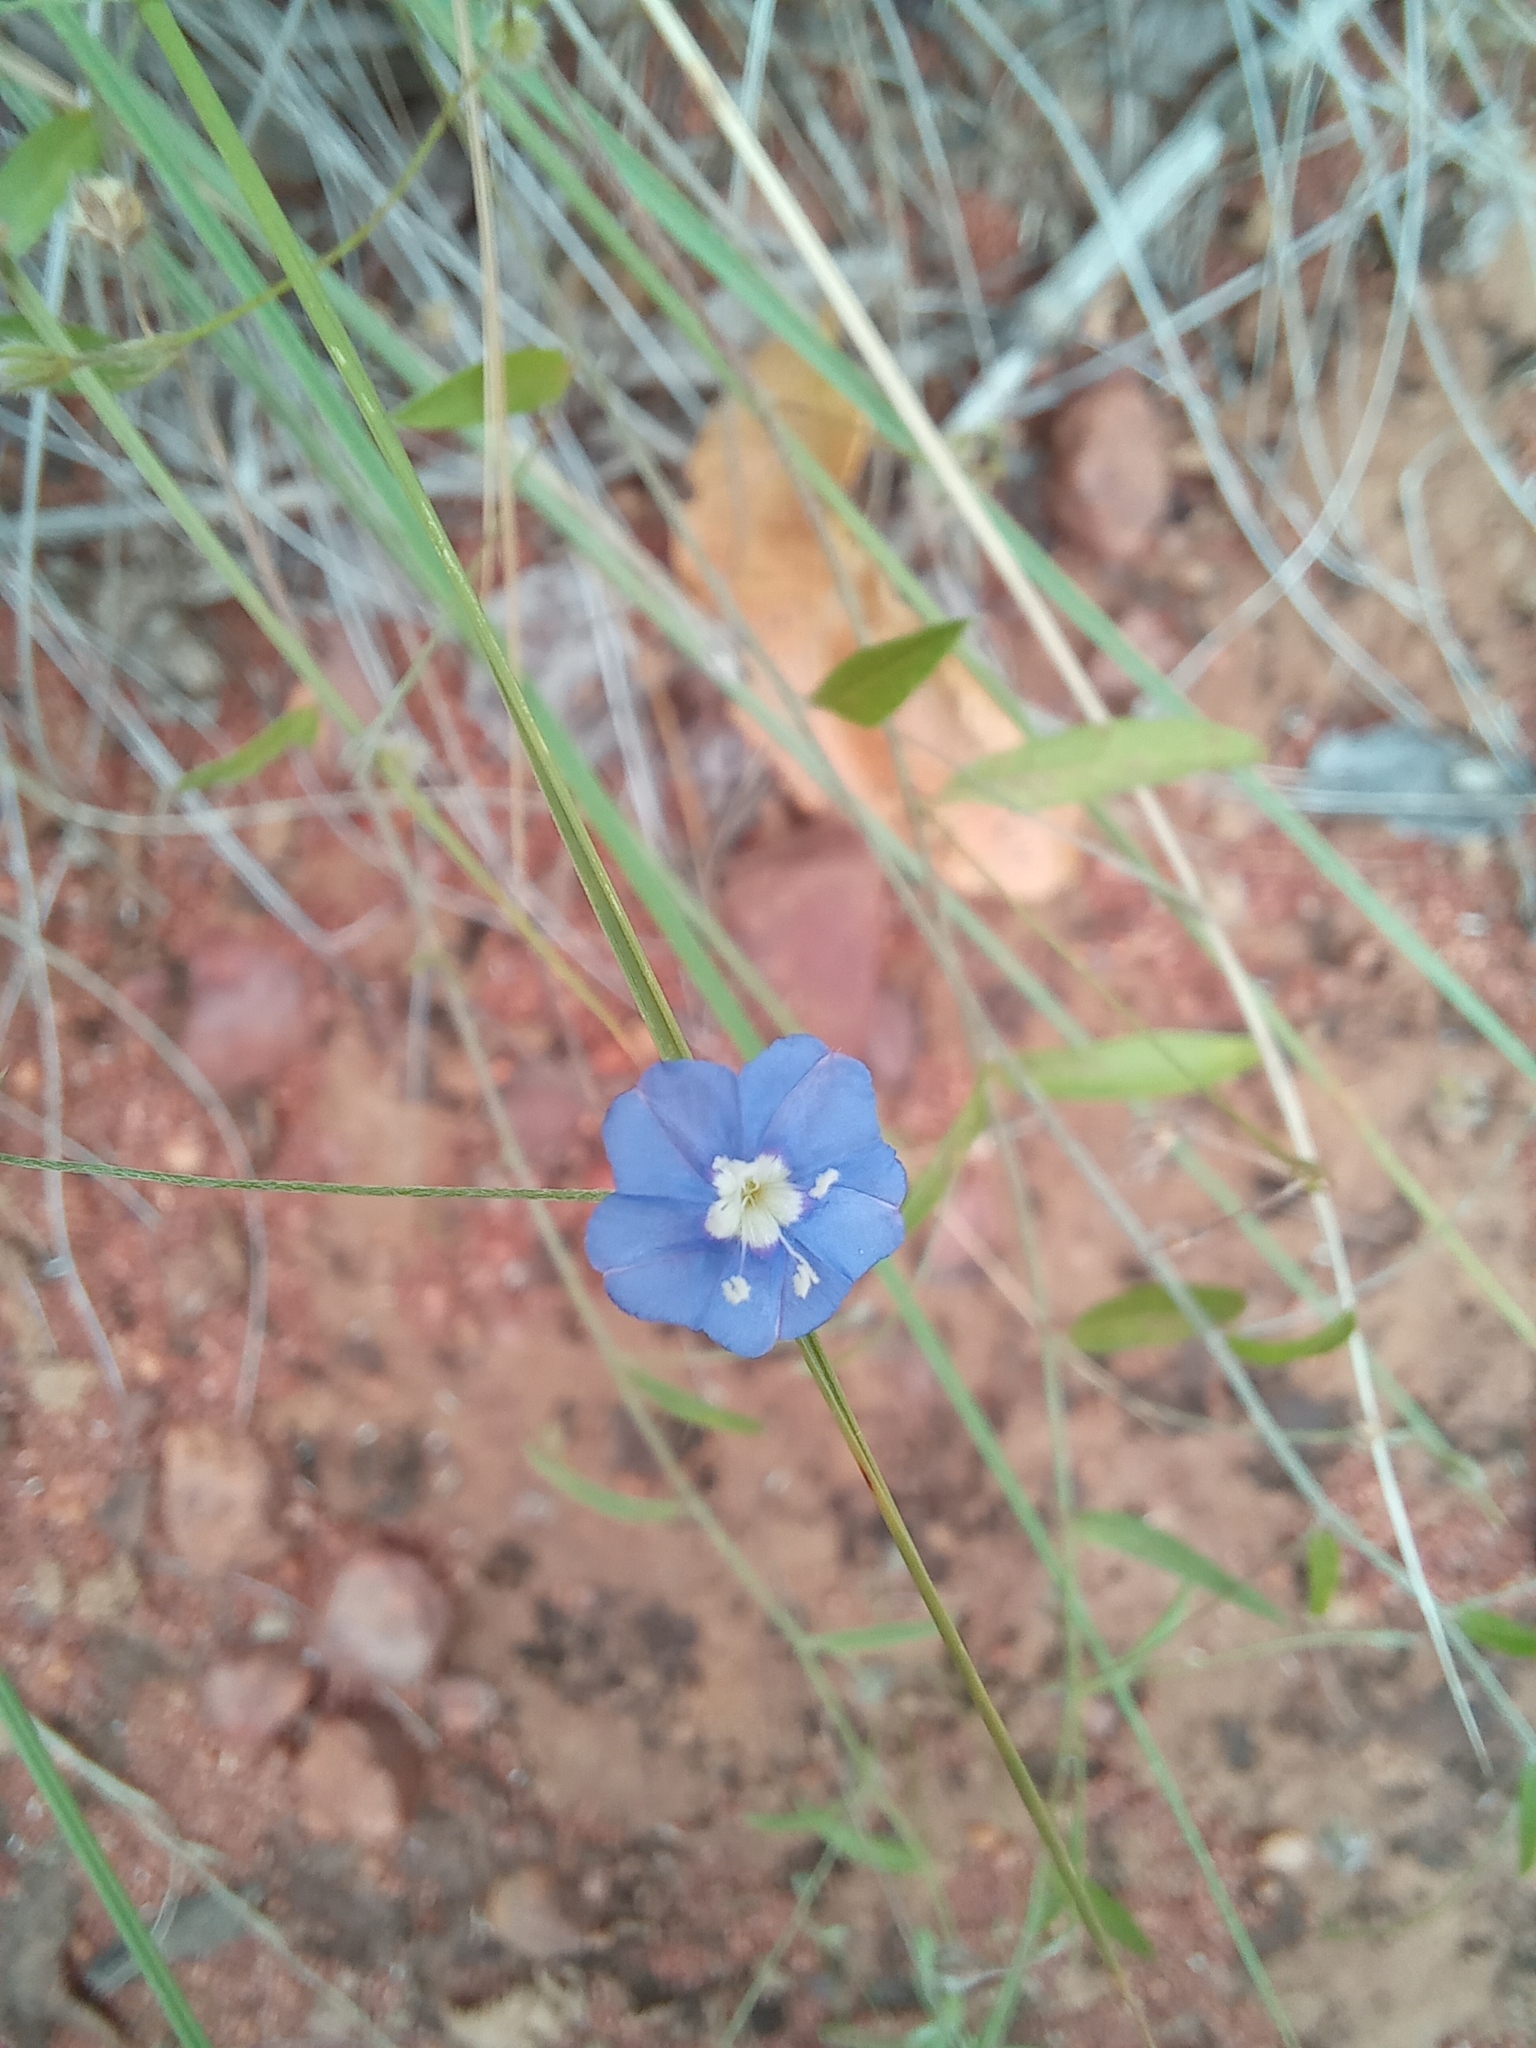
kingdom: Plantae
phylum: Tracheophyta
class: Magnoliopsida
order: Solanales
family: Convolvulaceae
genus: Evolvulus
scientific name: Evolvulus alsinoides
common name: Slender dwarf morning-glory
